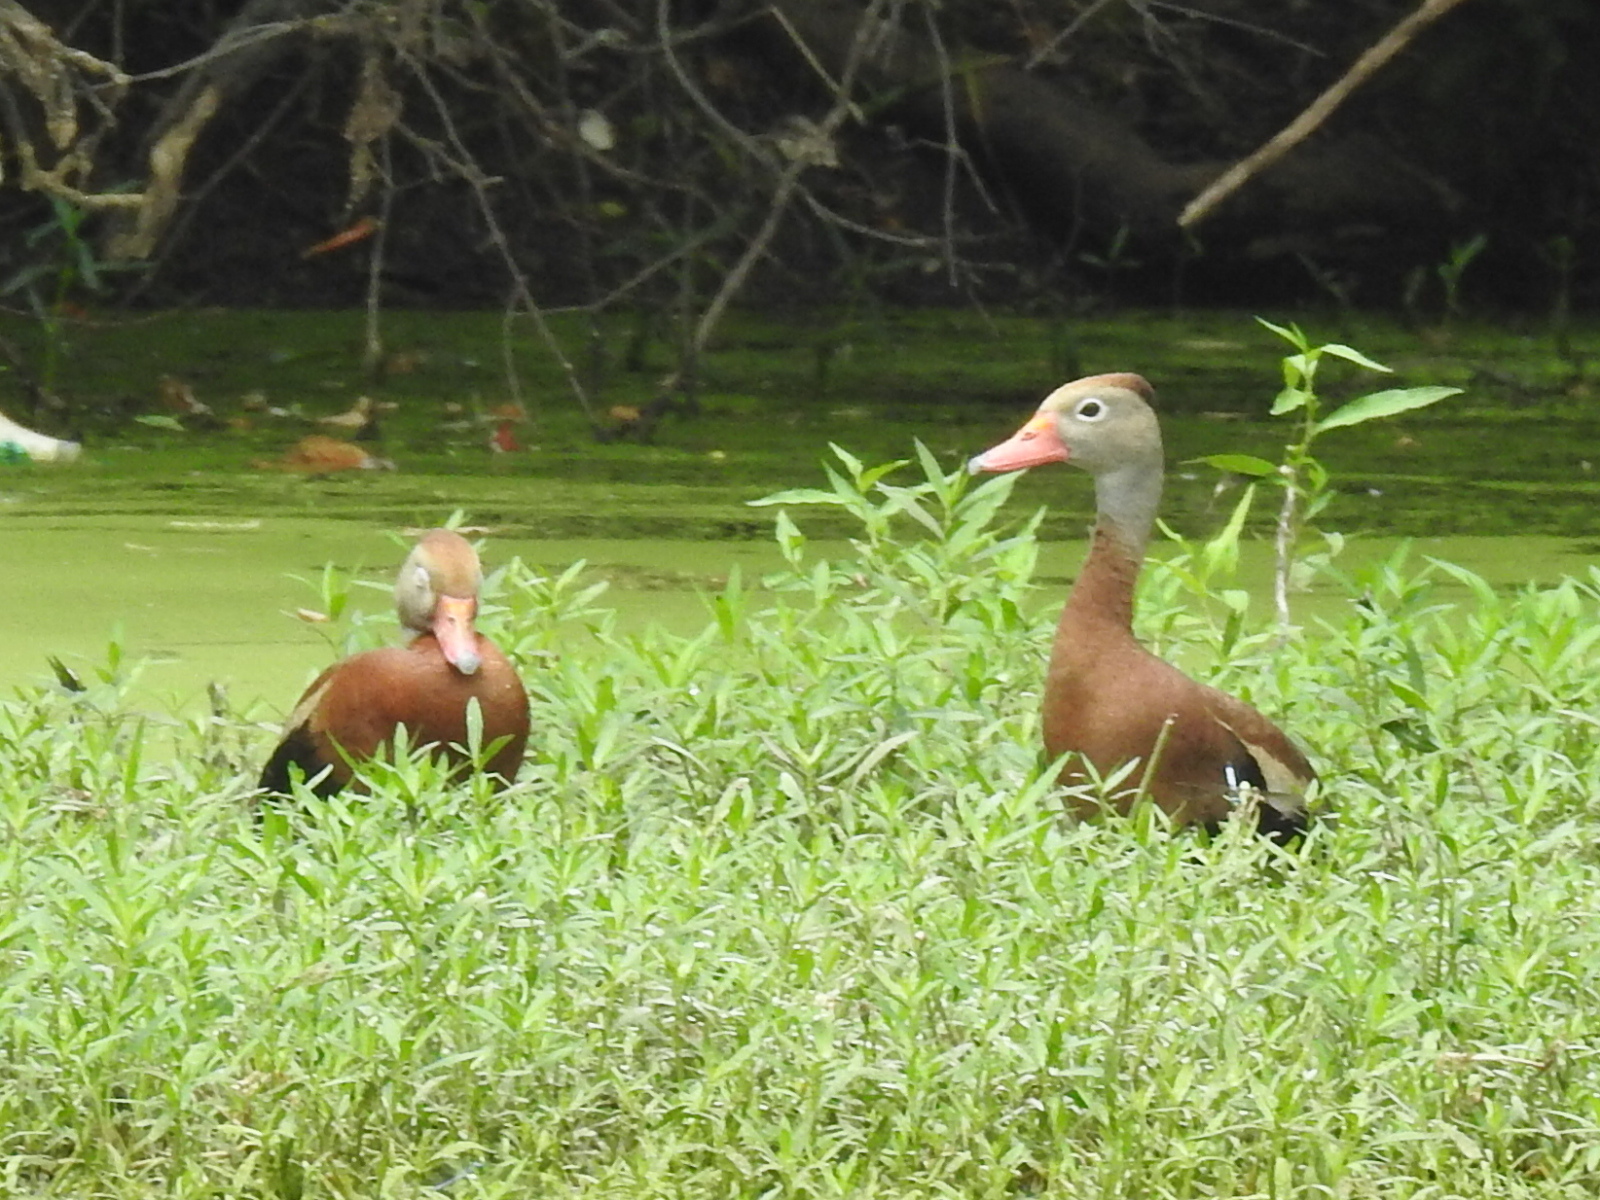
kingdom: Animalia
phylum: Chordata
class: Aves
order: Anseriformes
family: Anatidae
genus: Dendrocygna
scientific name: Dendrocygna autumnalis
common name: Black-bellied whistling duck
